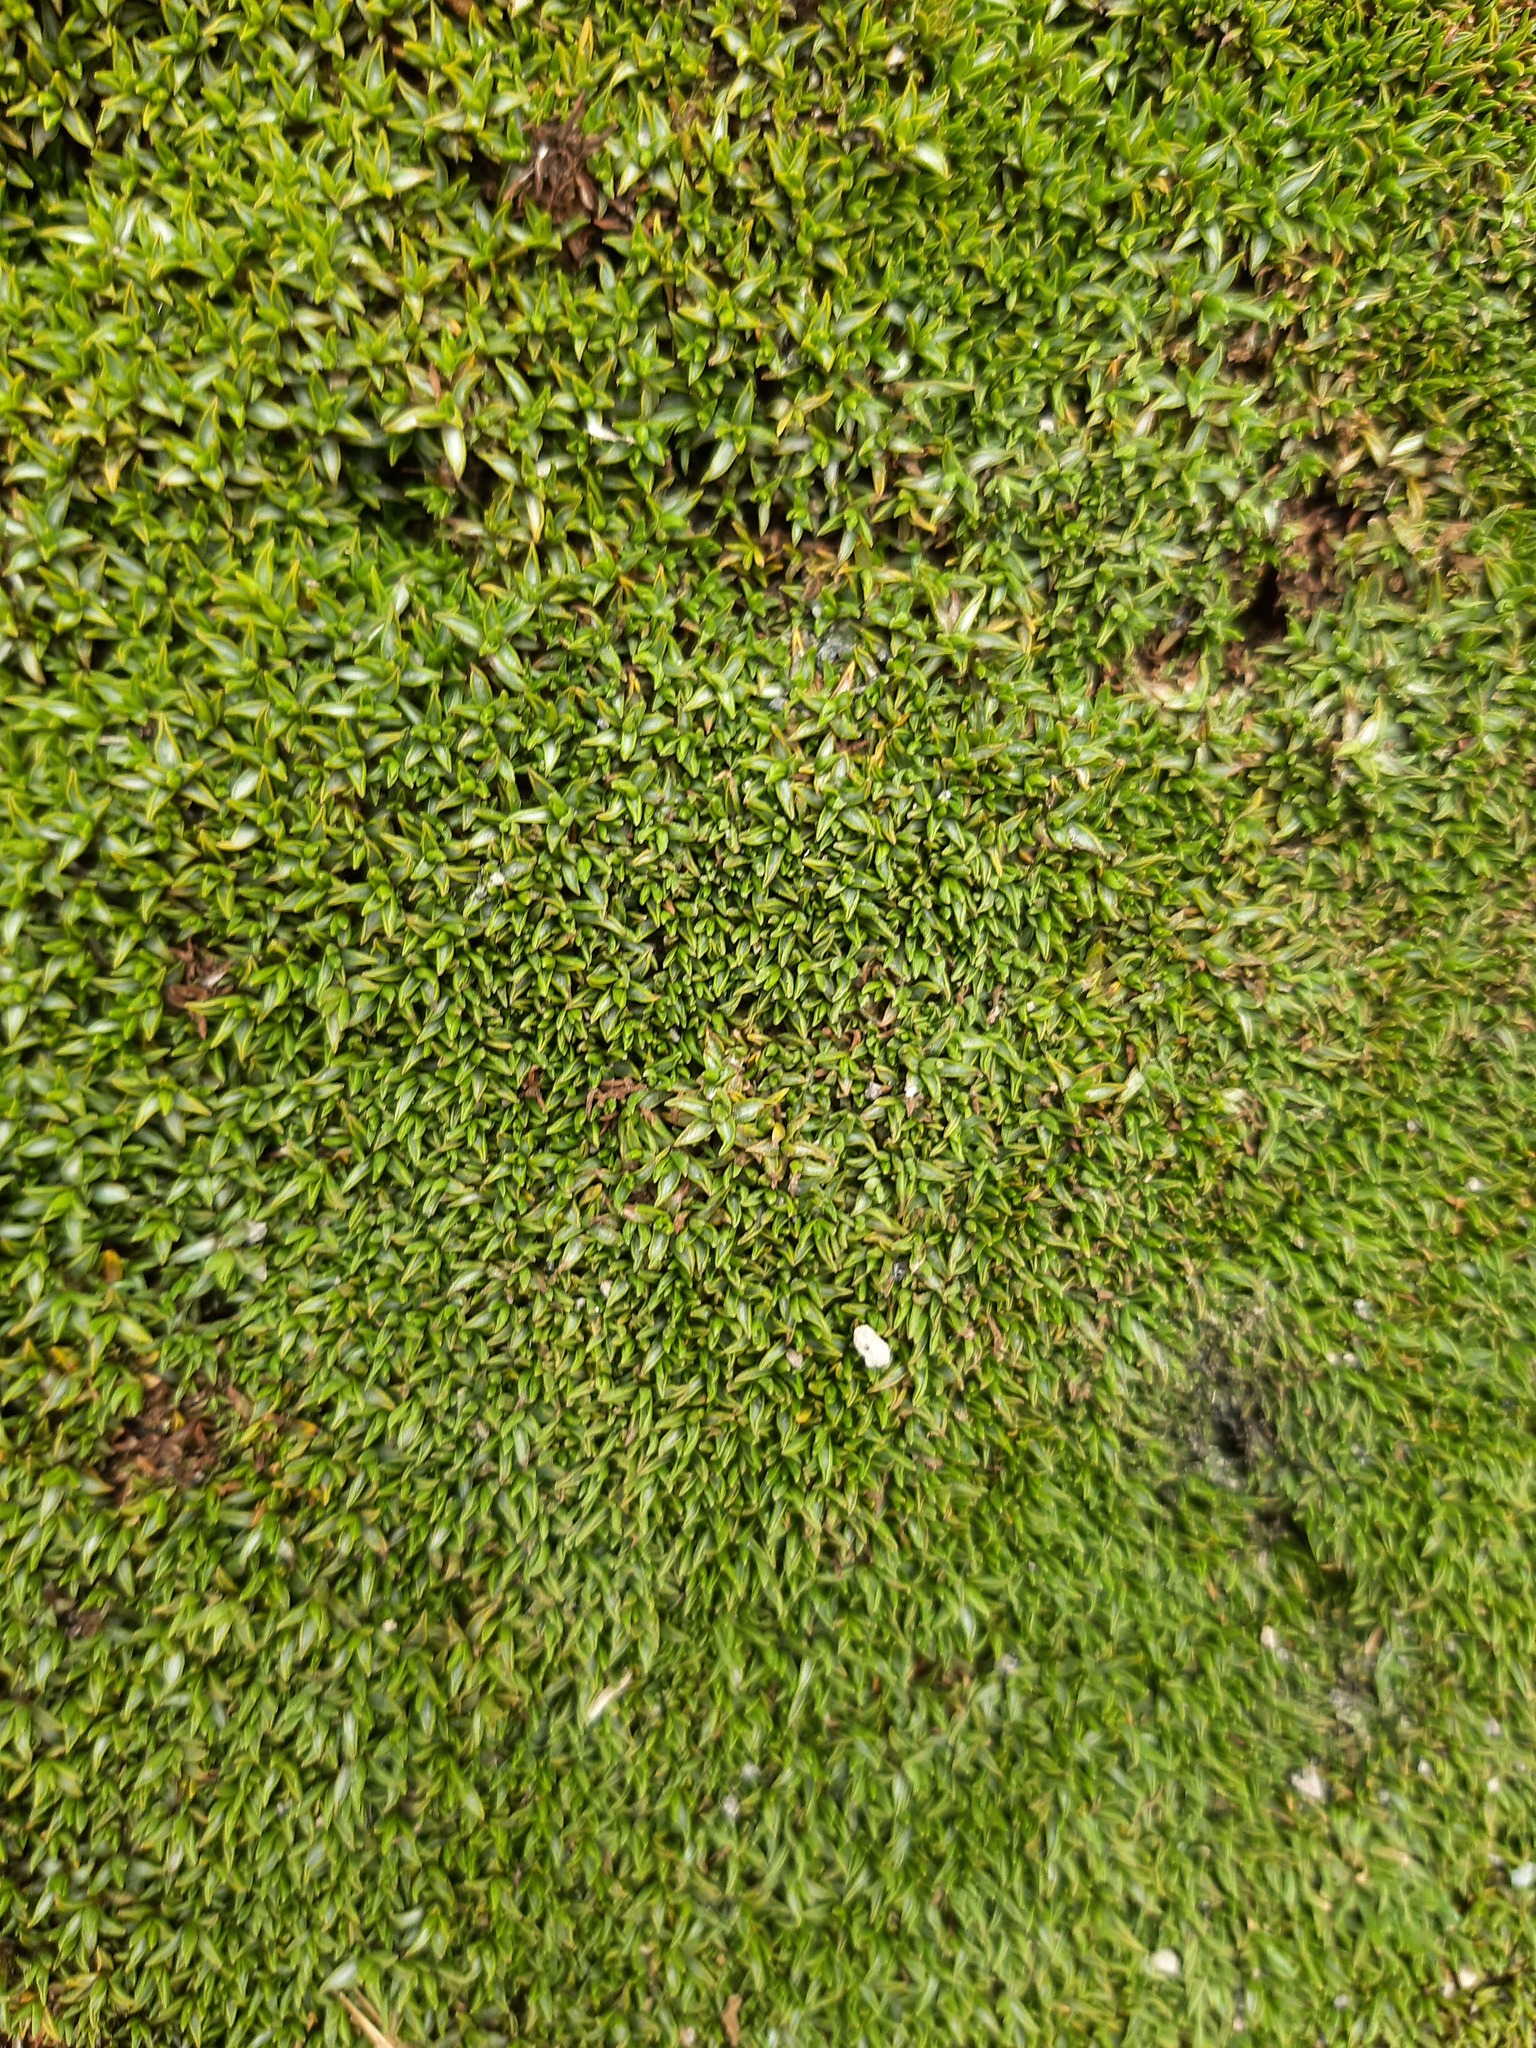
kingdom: Plantae
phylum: Tracheophyta
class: Magnoliopsida
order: Asterales
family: Asteraceae
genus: Raoulia
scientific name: Raoulia tenuicaulis
